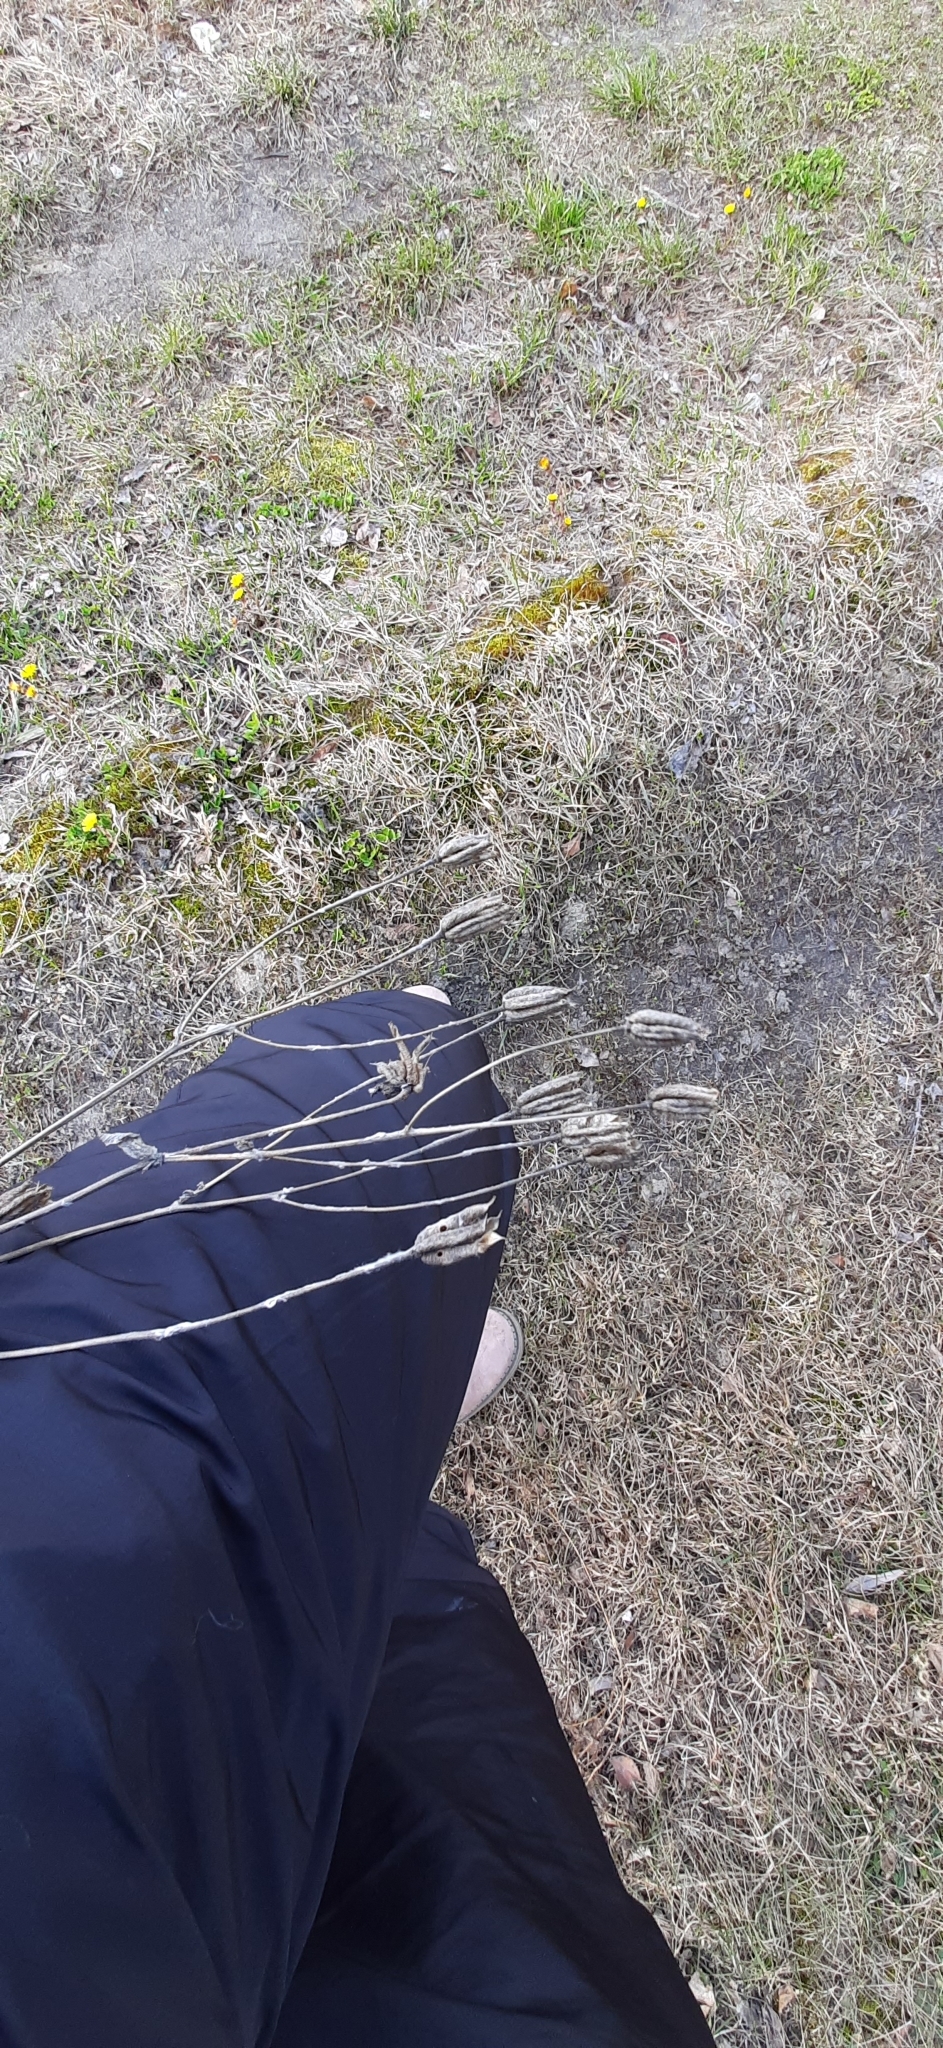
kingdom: Plantae
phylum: Tracheophyta
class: Magnoliopsida
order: Ranunculales
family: Ranunculaceae
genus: Aquilegia
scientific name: Aquilegia vulgaris
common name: Columbine
